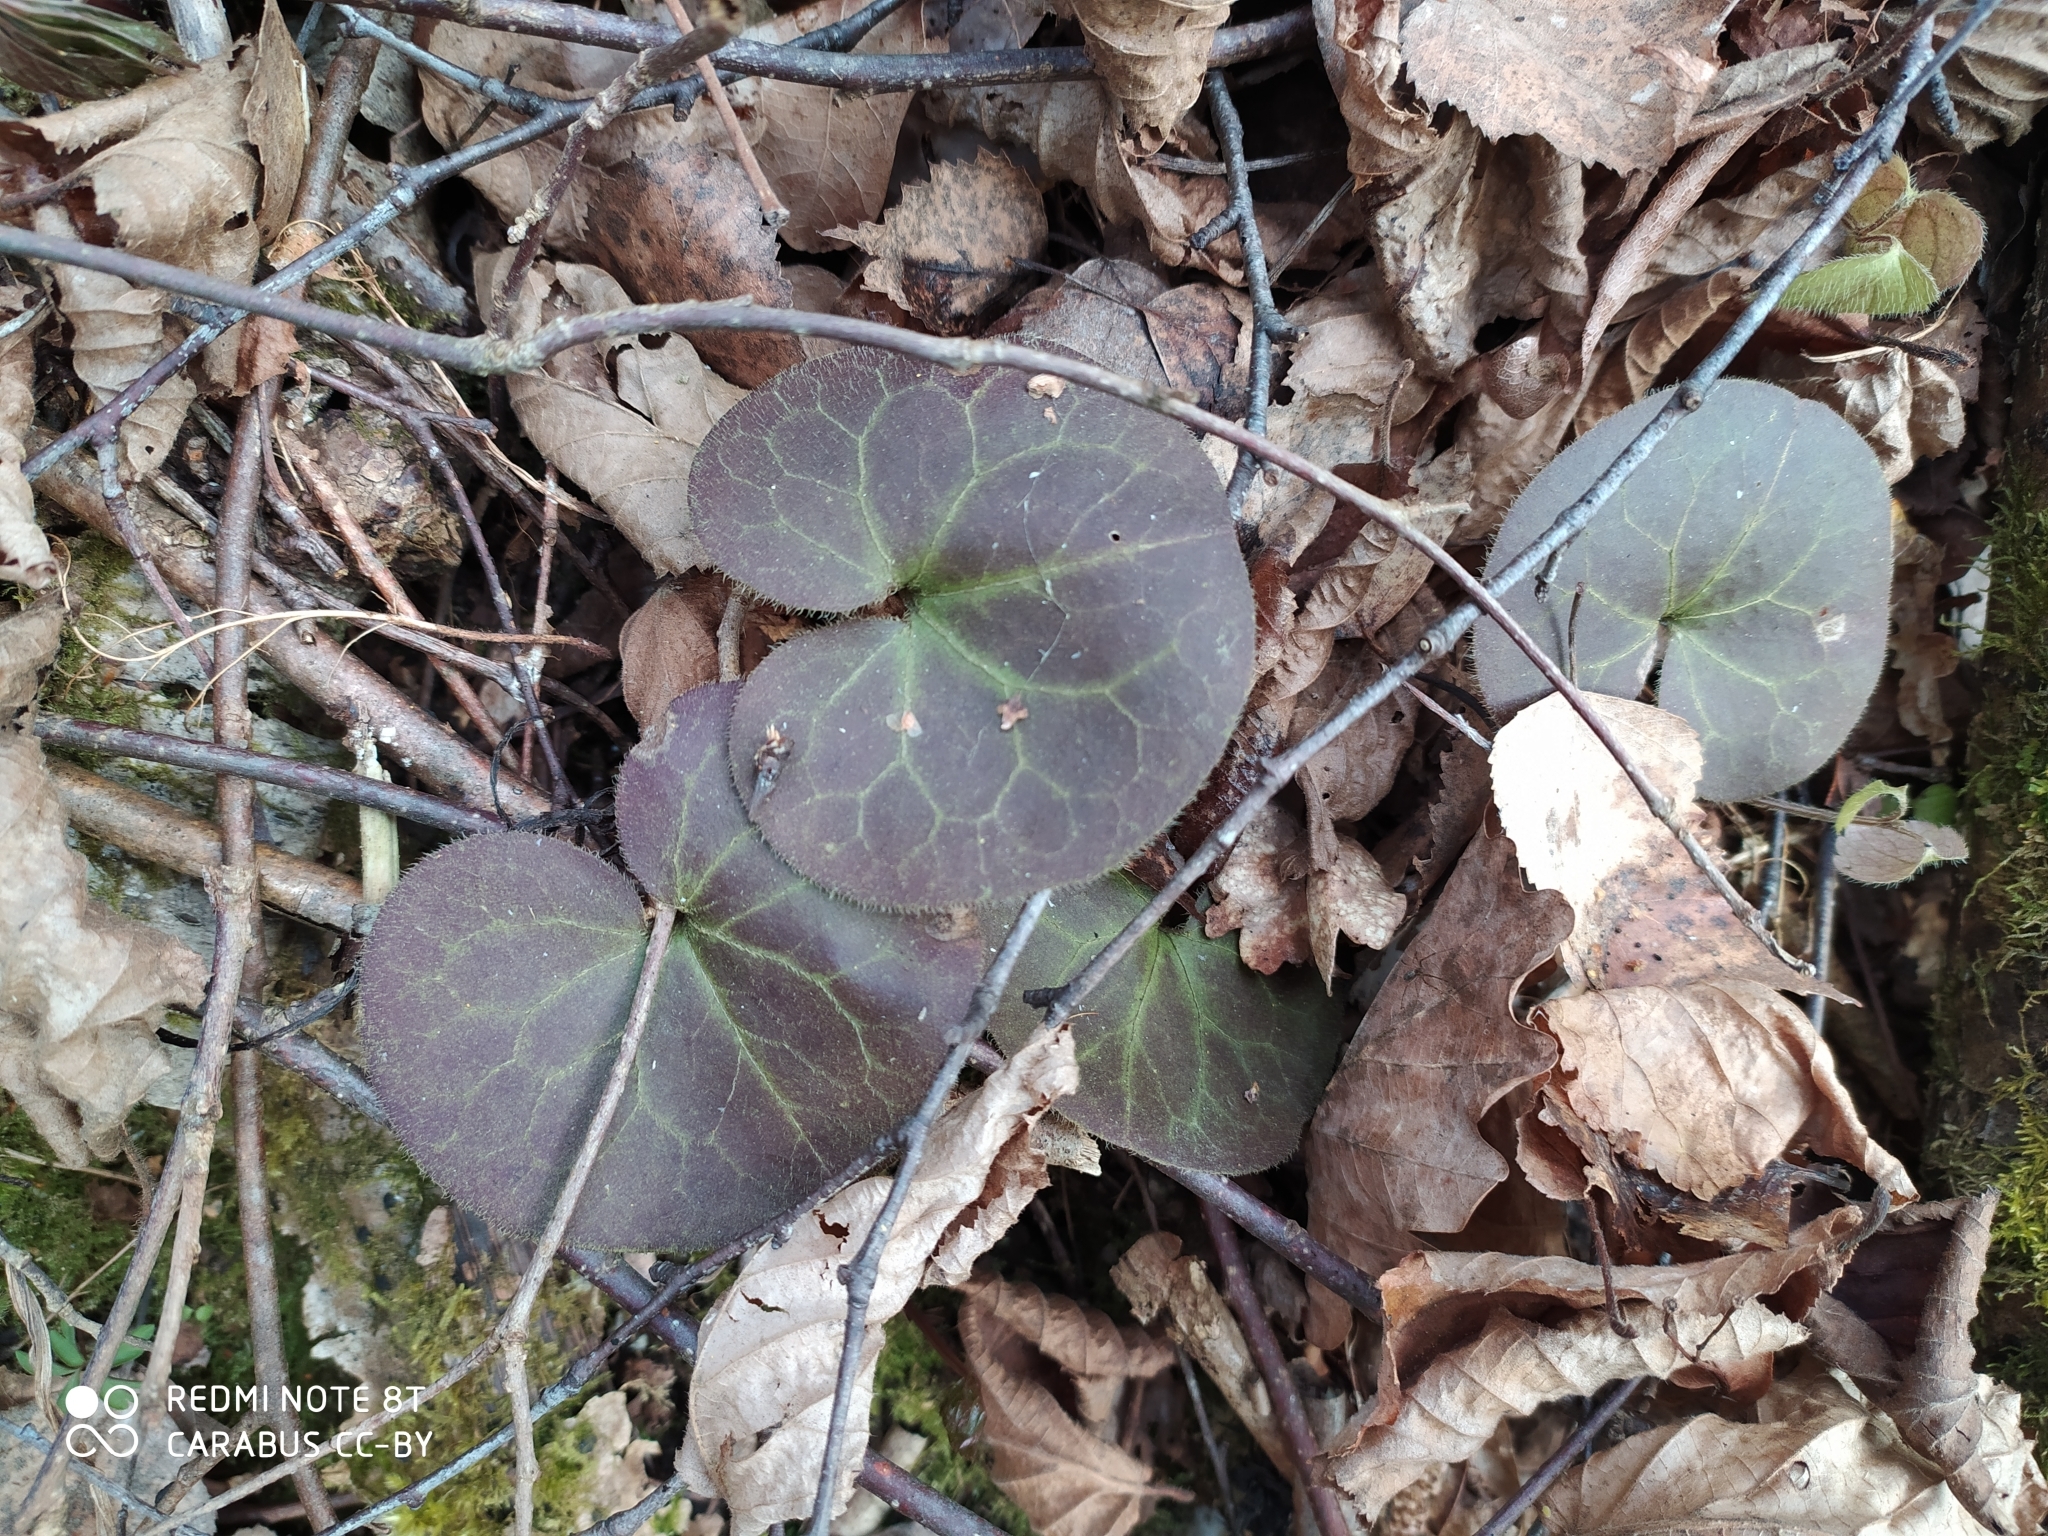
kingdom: Plantae
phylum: Tracheophyta
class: Magnoliopsida
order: Piperales
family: Aristolochiaceae
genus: Asarum
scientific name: Asarum europaeum
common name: Asarabacca
